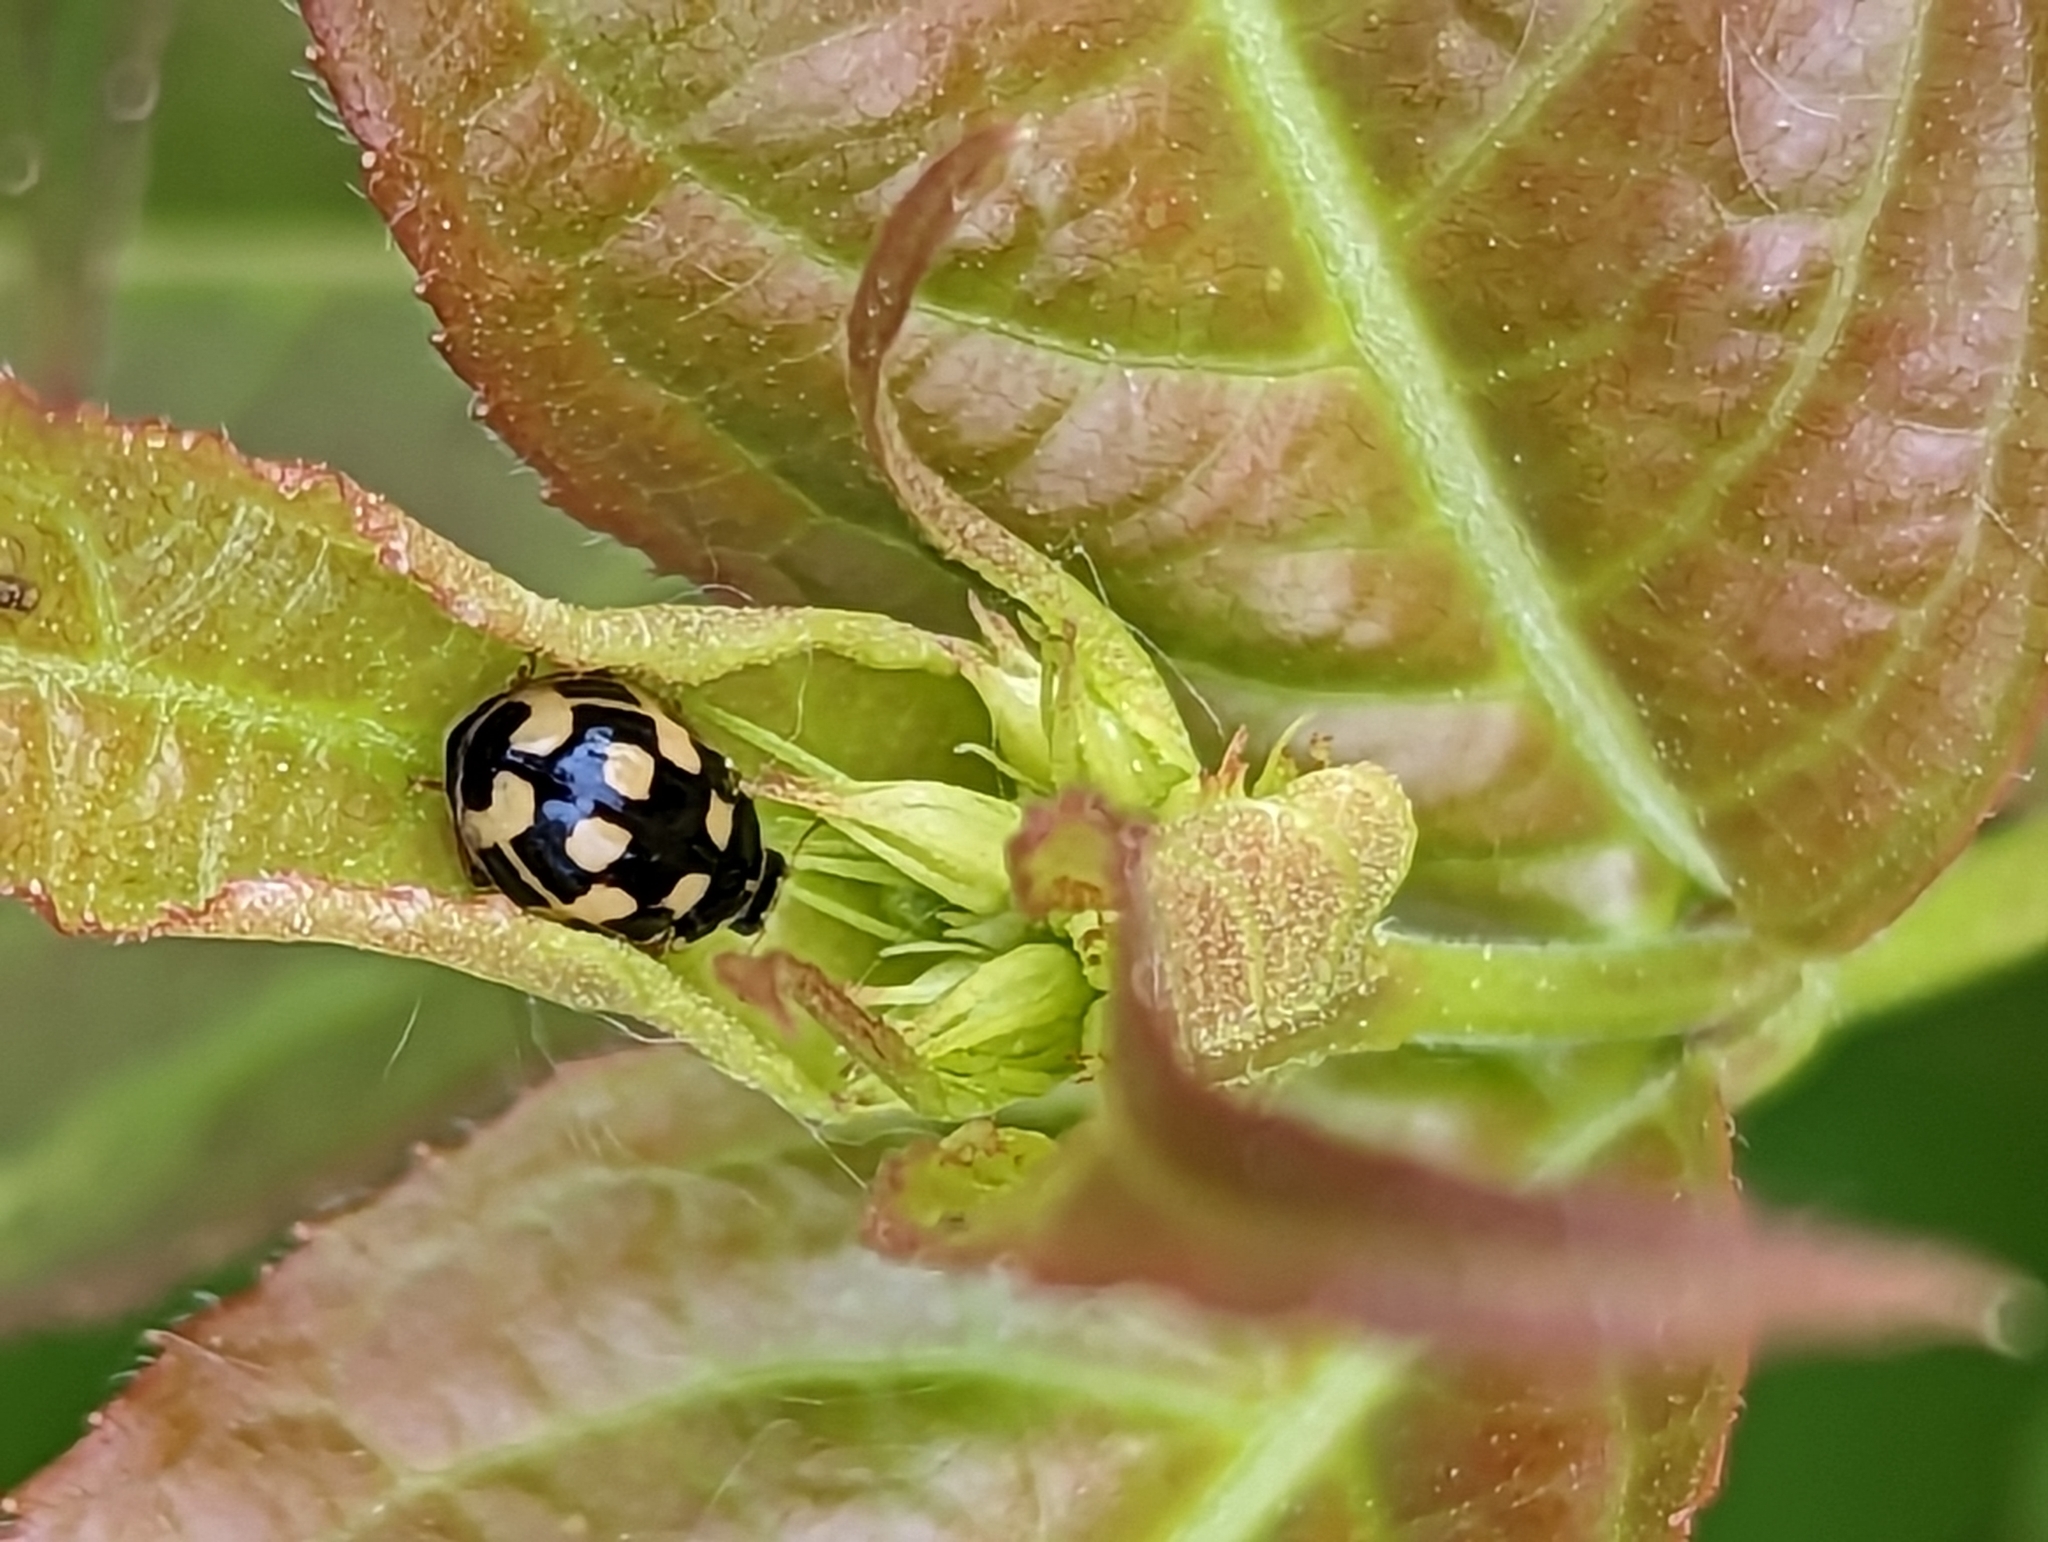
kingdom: Animalia
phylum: Arthropoda
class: Insecta
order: Coleoptera
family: Coccinellidae
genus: Propylaea
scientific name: Propylaea quatuordecimpunctata
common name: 14-spotted ladybird beetle
